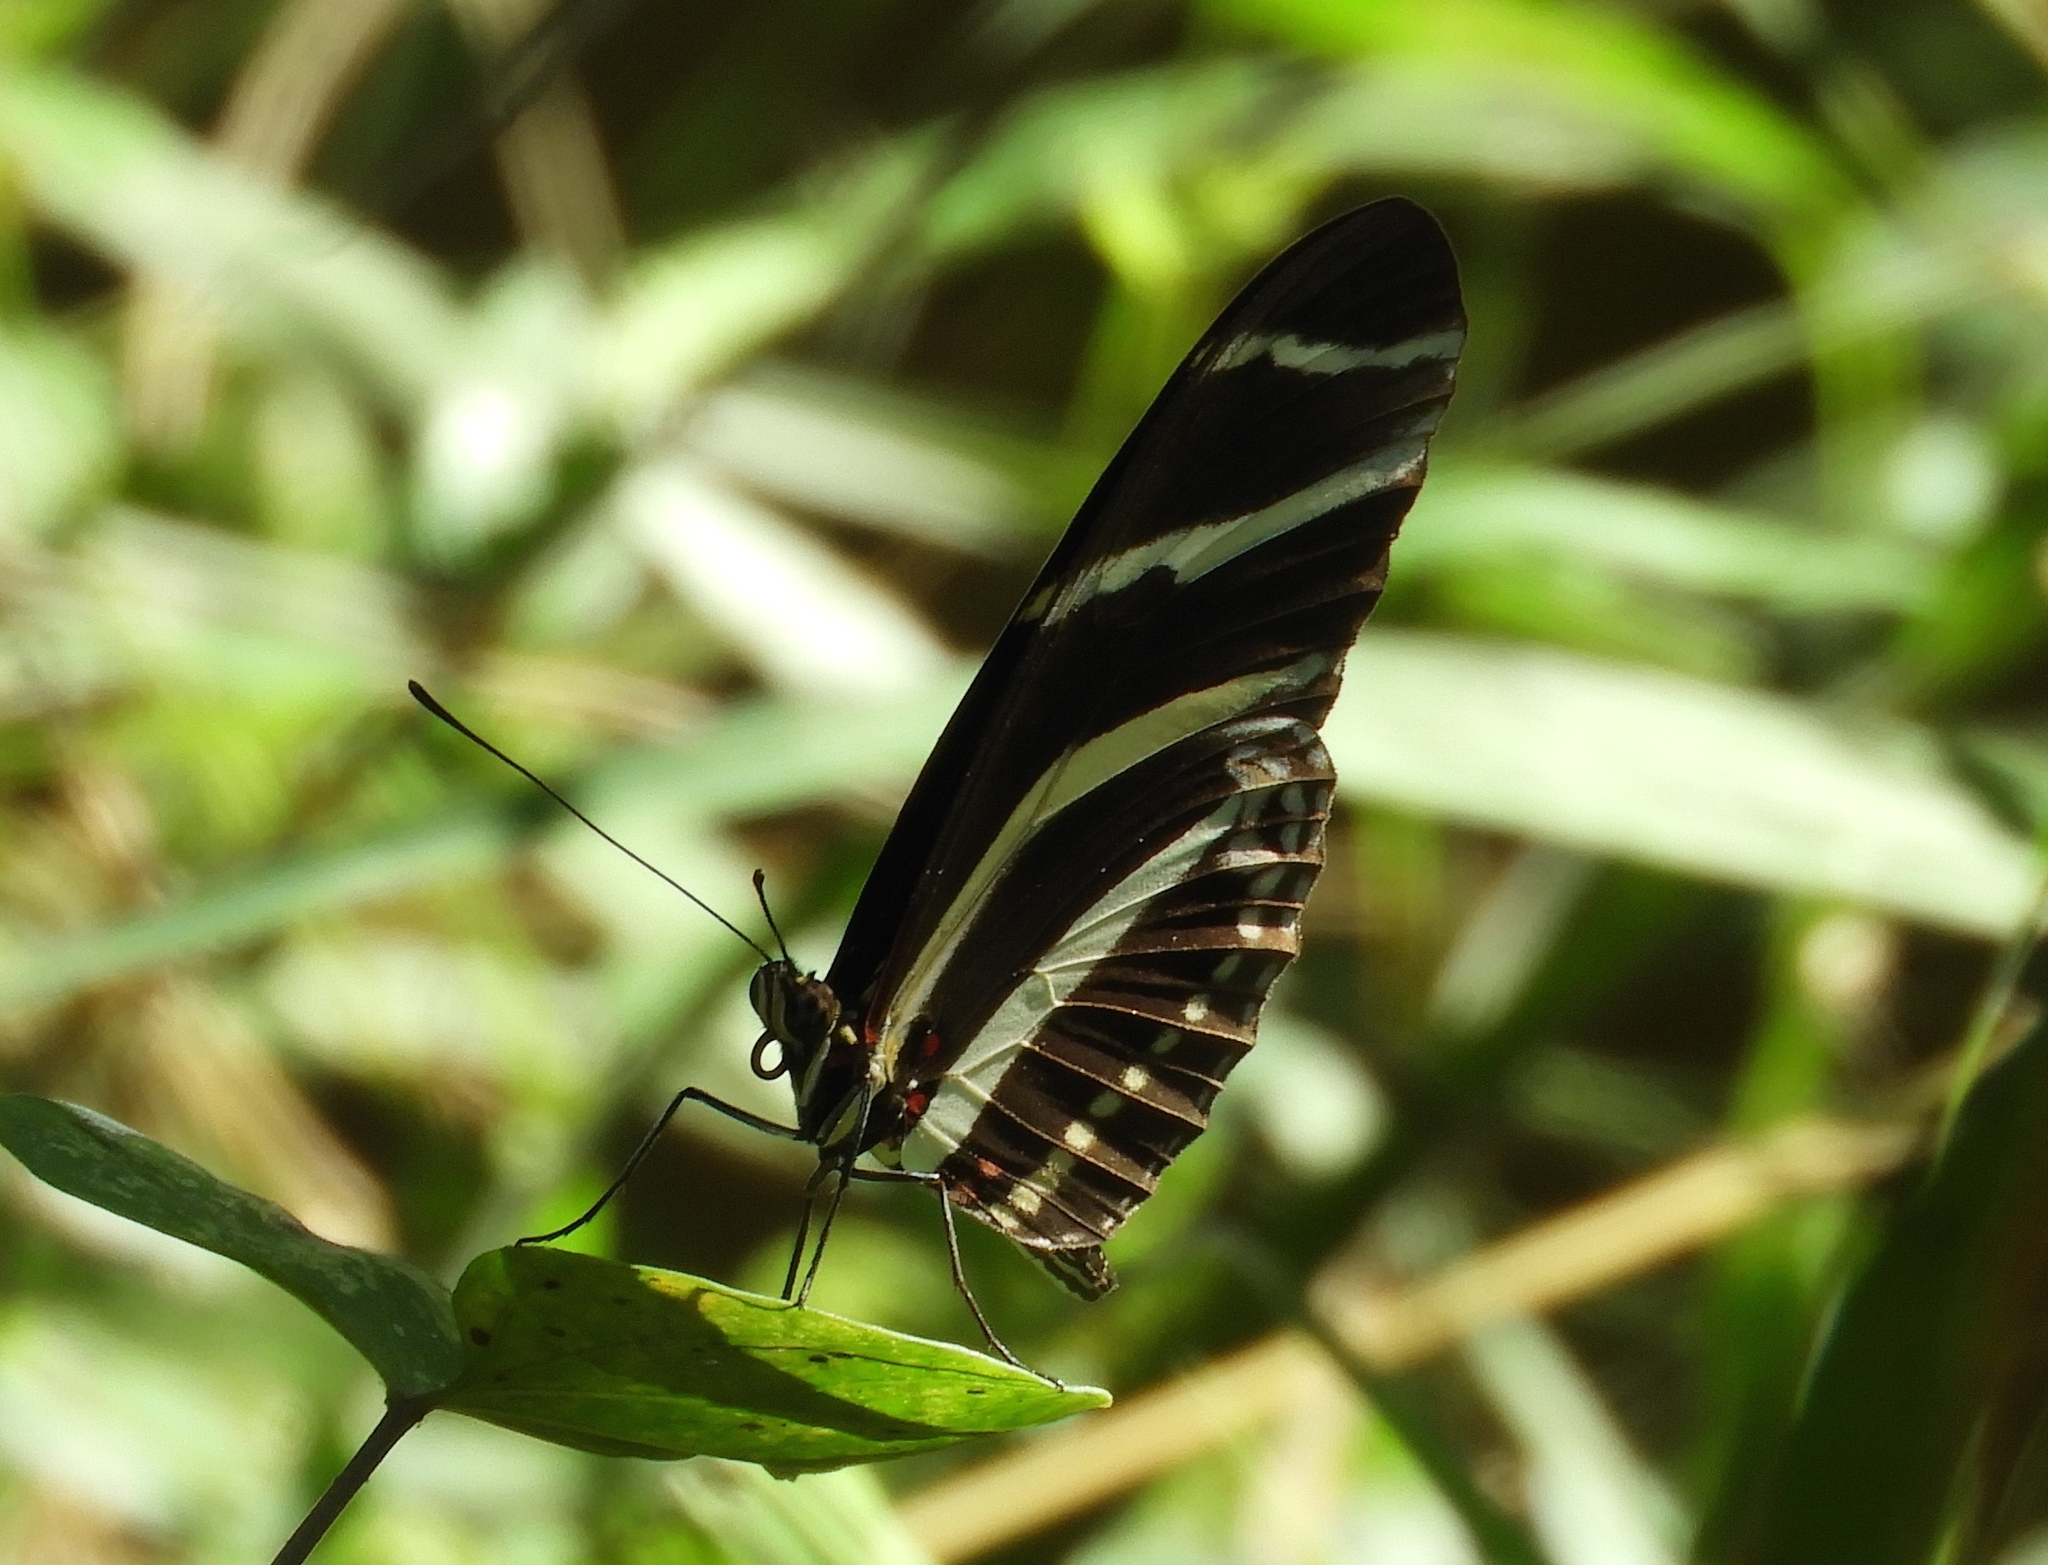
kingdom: Animalia
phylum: Arthropoda
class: Insecta
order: Lepidoptera
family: Nymphalidae
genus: Heliconius
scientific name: Heliconius charithonia
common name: Zebra long wing
